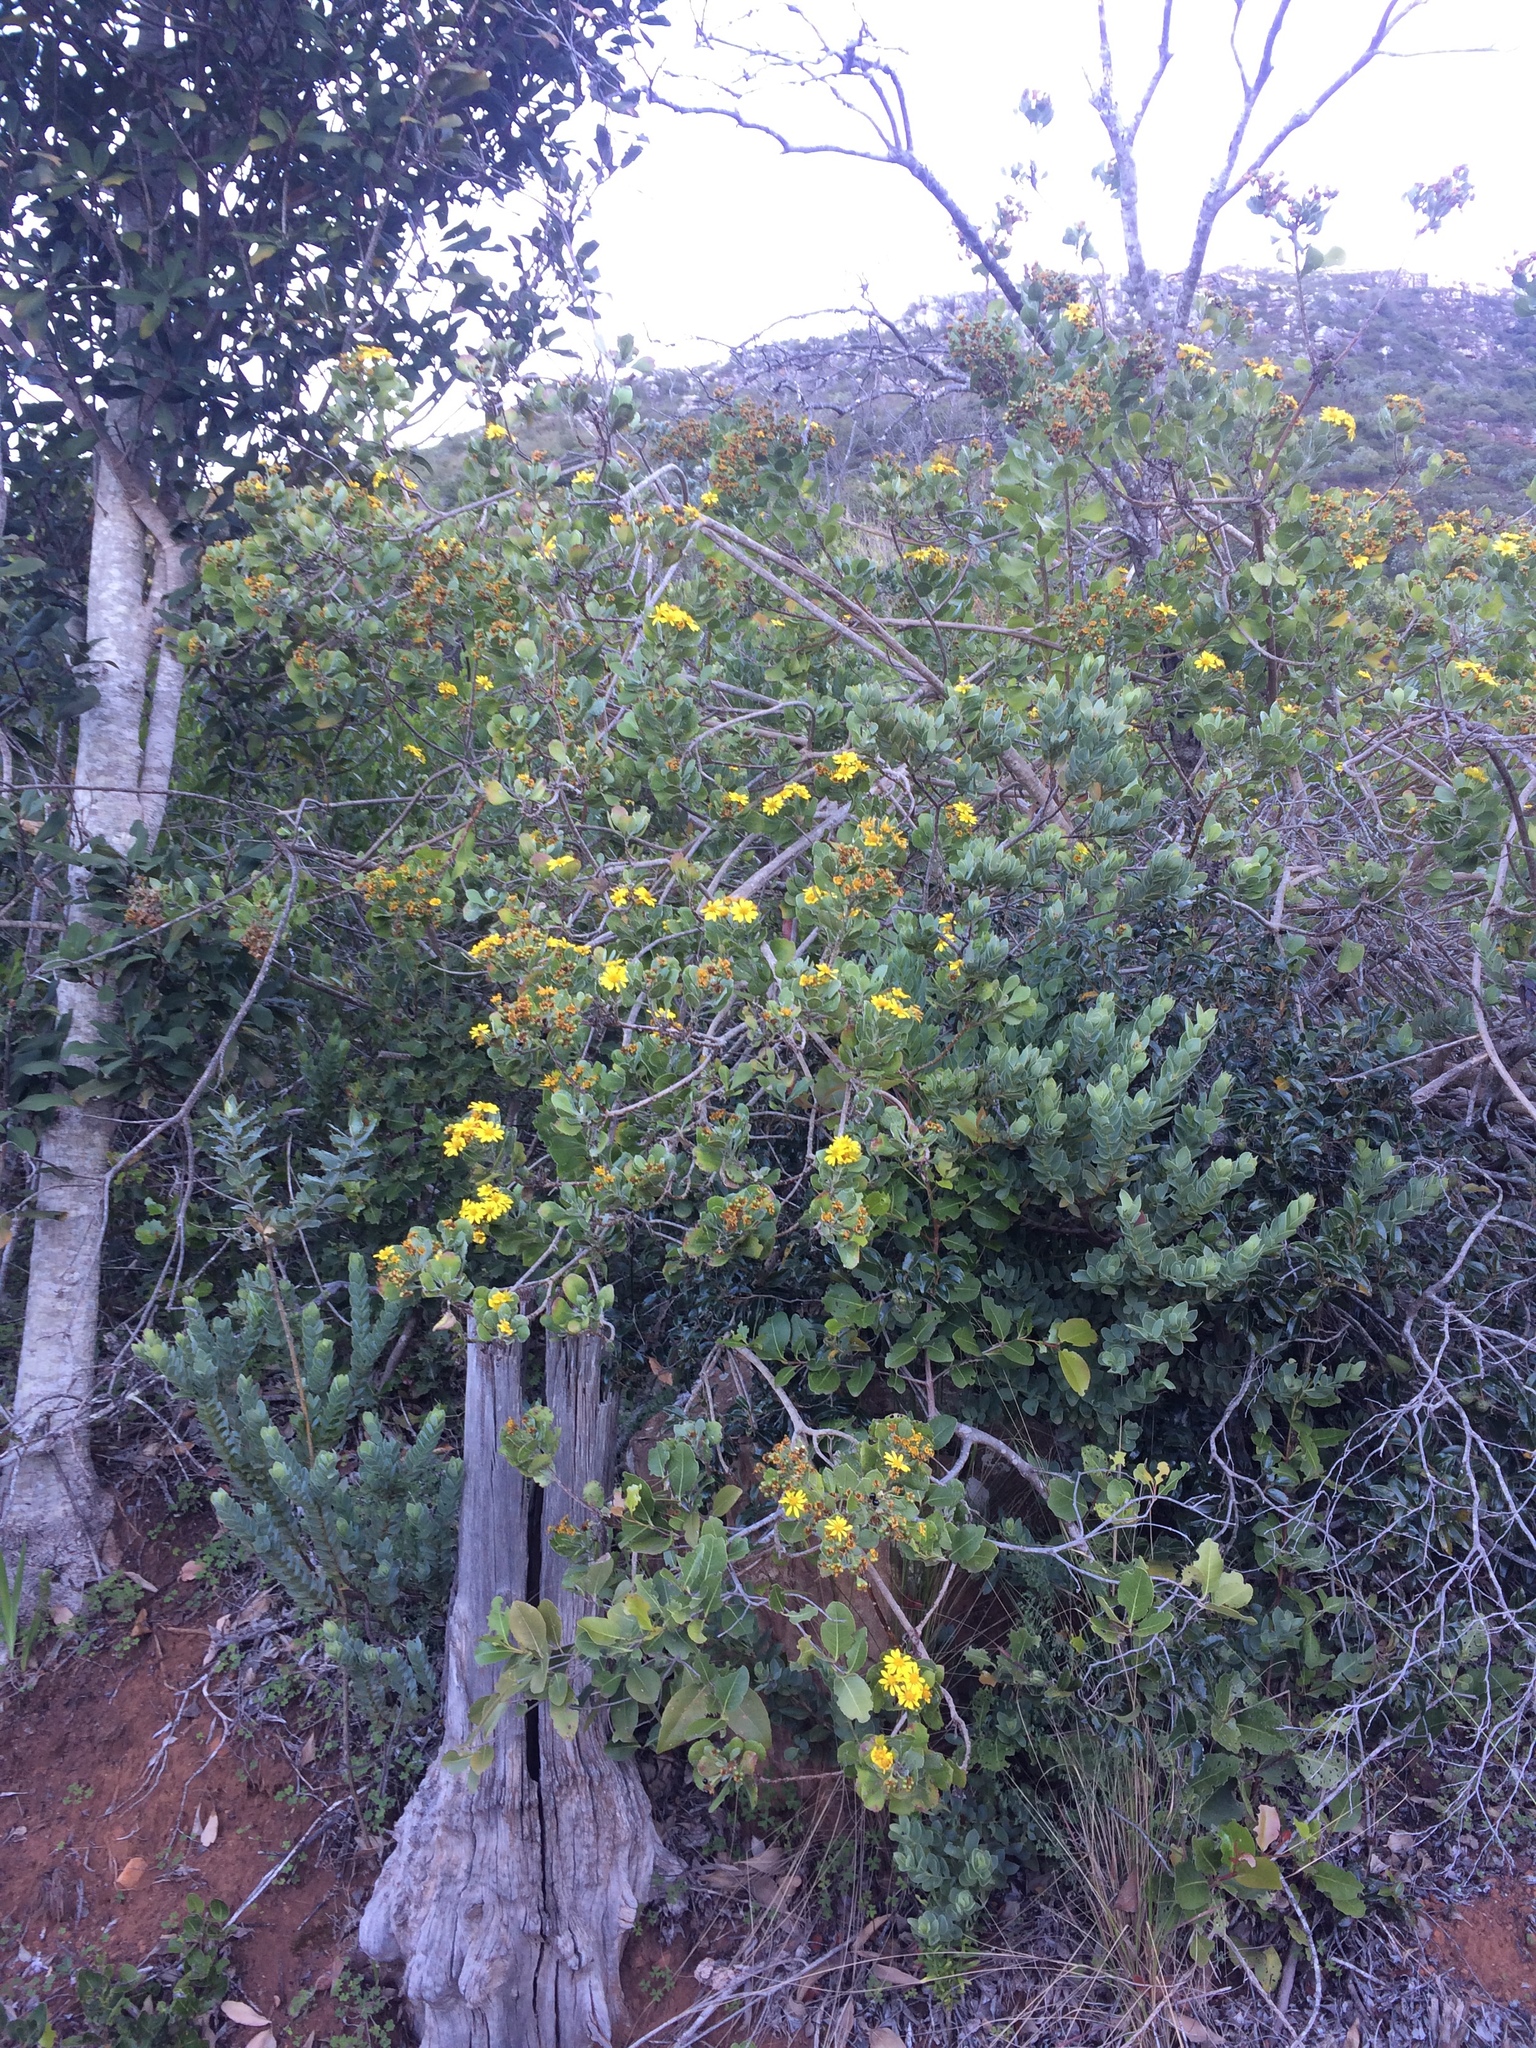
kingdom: Plantae
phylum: Tracheophyta
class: Magnoliopsida
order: Asterales
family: Asteraceae
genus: Osteospermum
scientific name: Osteospermum moniliferum
